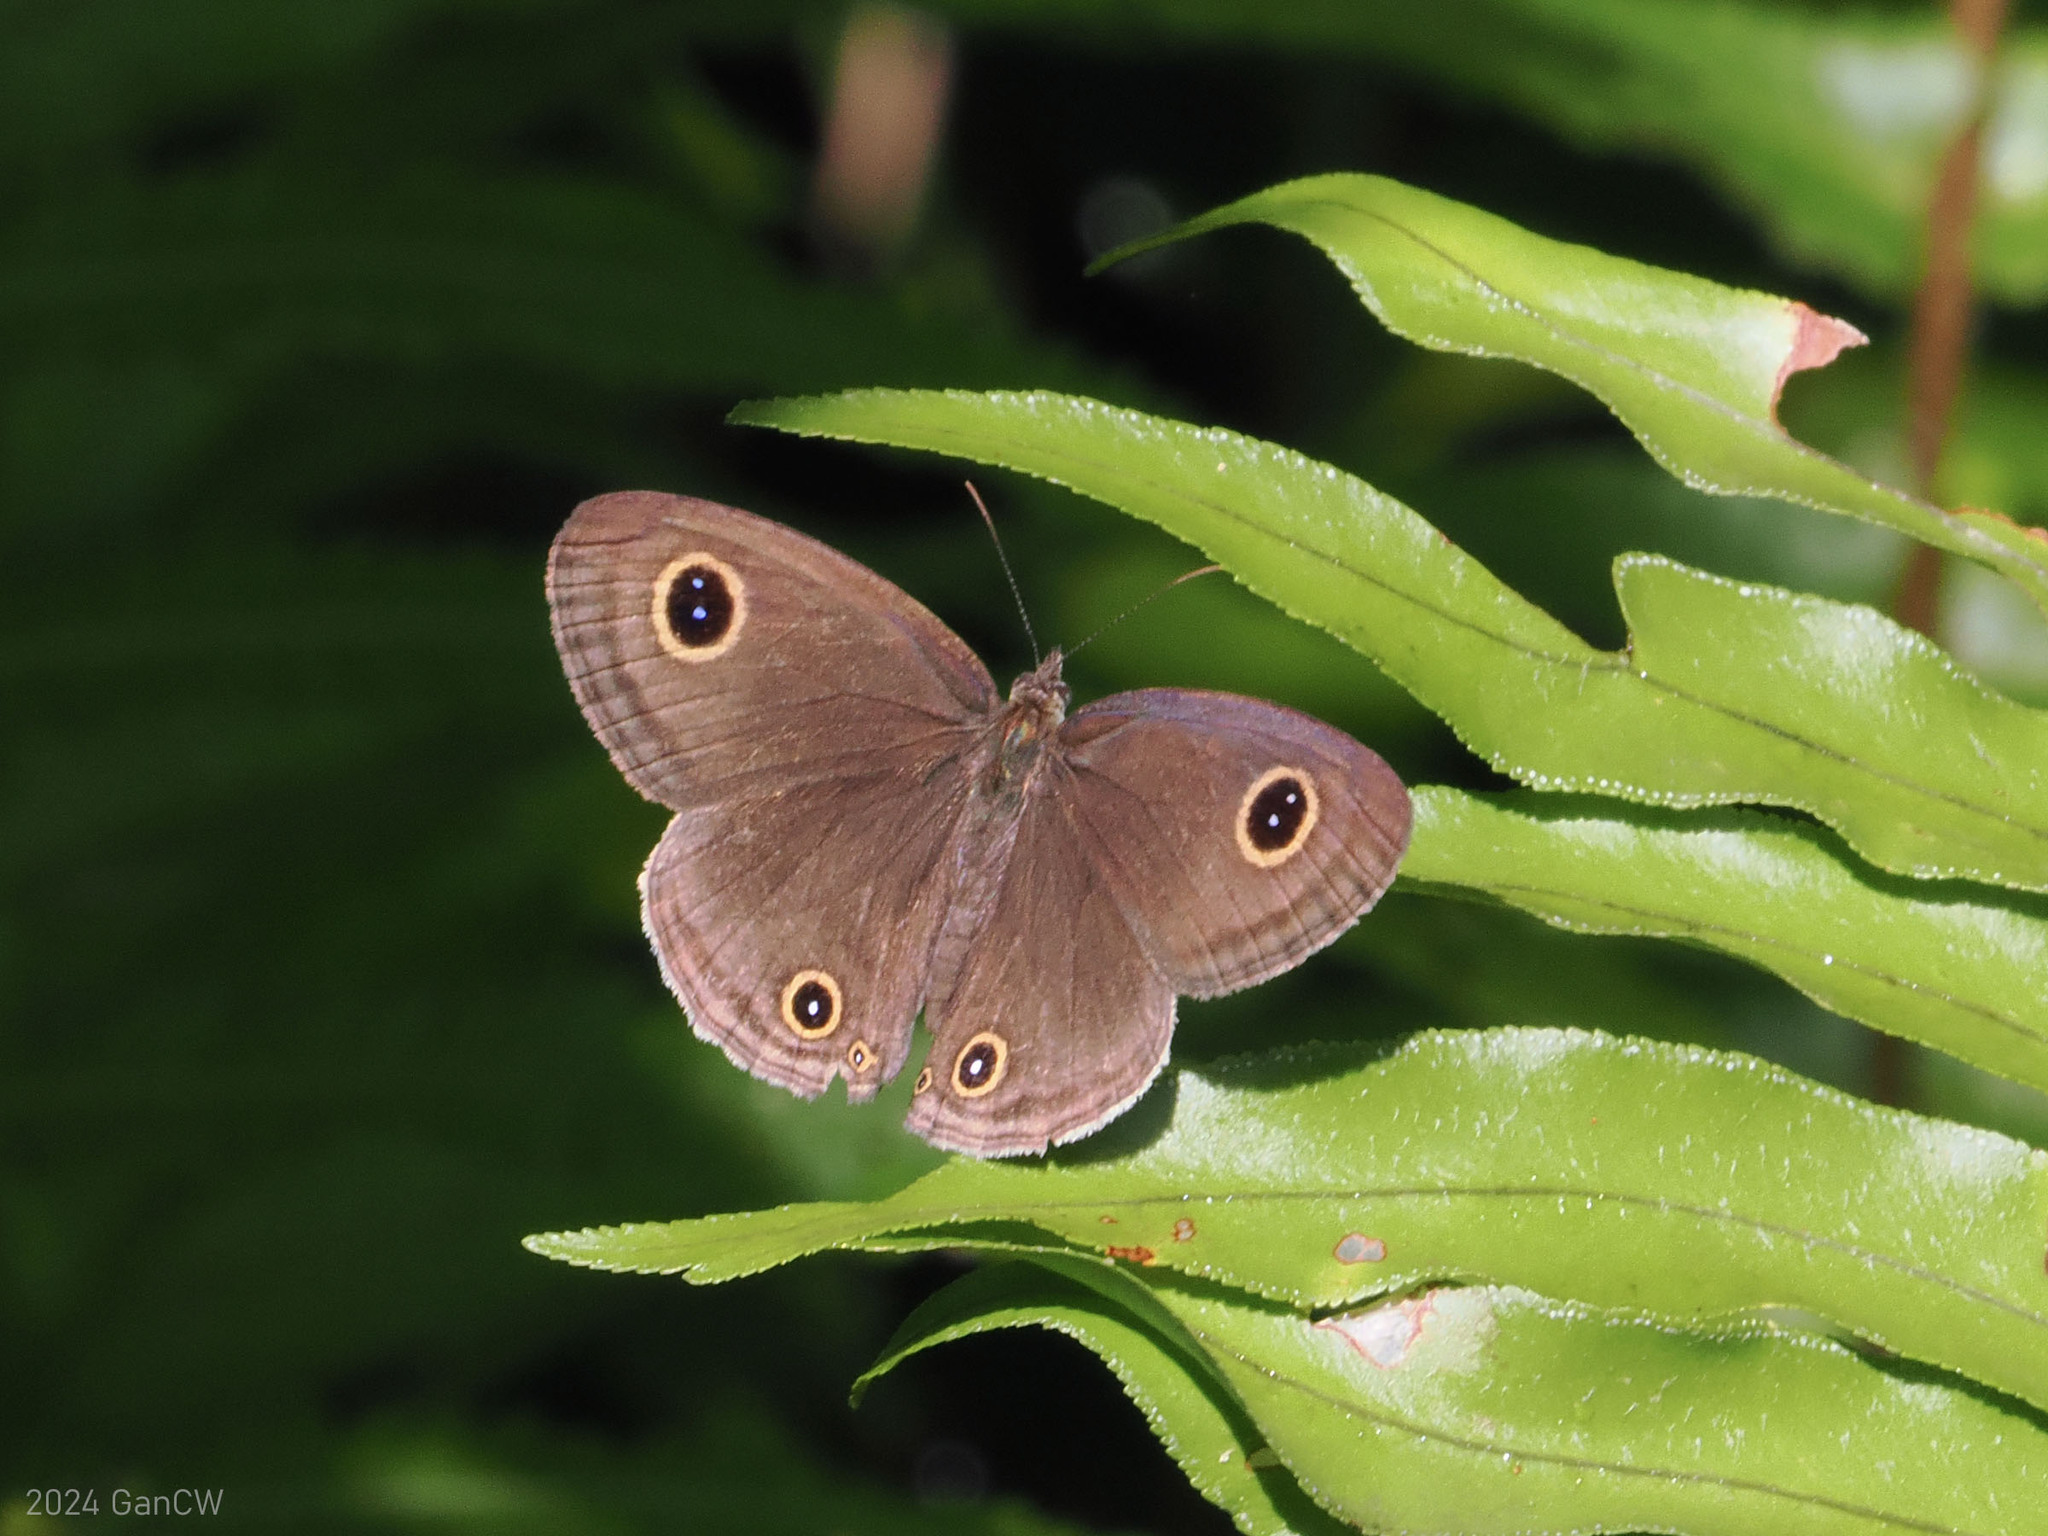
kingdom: Animalia
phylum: Arthropoda
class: Insecta
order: Lepidoptera
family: Nymphalidae
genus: Ypthima
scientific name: Ypthima pandocus
